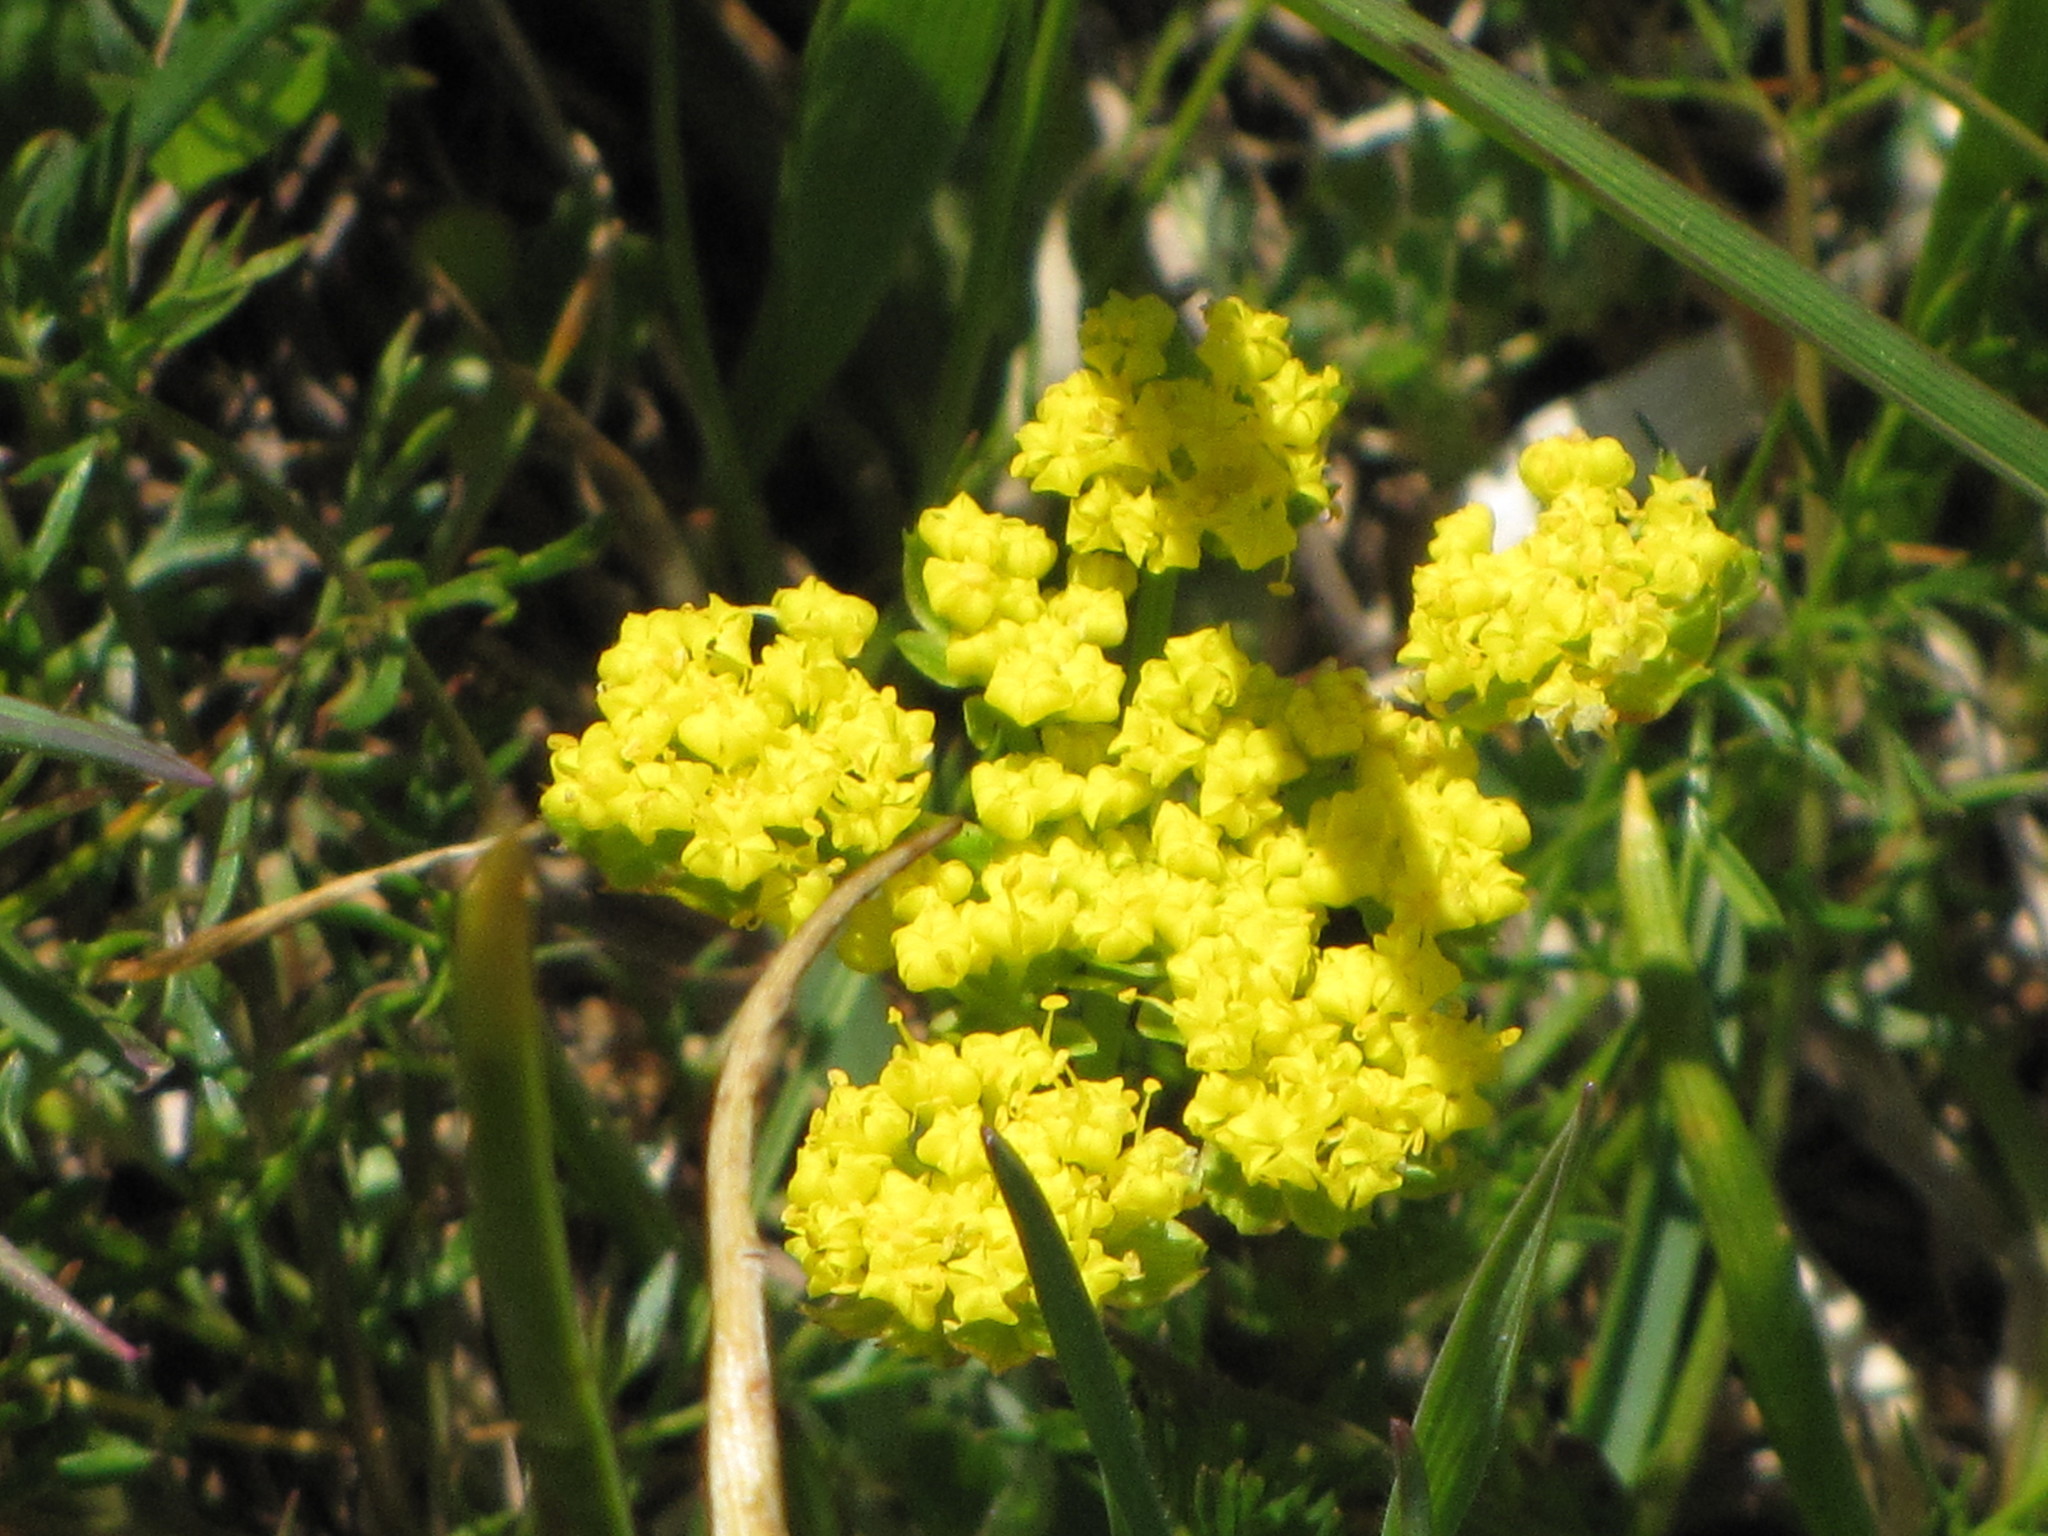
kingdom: Plantae
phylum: Tracheophyta
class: Magnoliopsida
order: Apiales
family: Apiaceae
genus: Lomatium
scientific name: Lomatium utriculatum
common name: Fine-leaf desert-parsley
